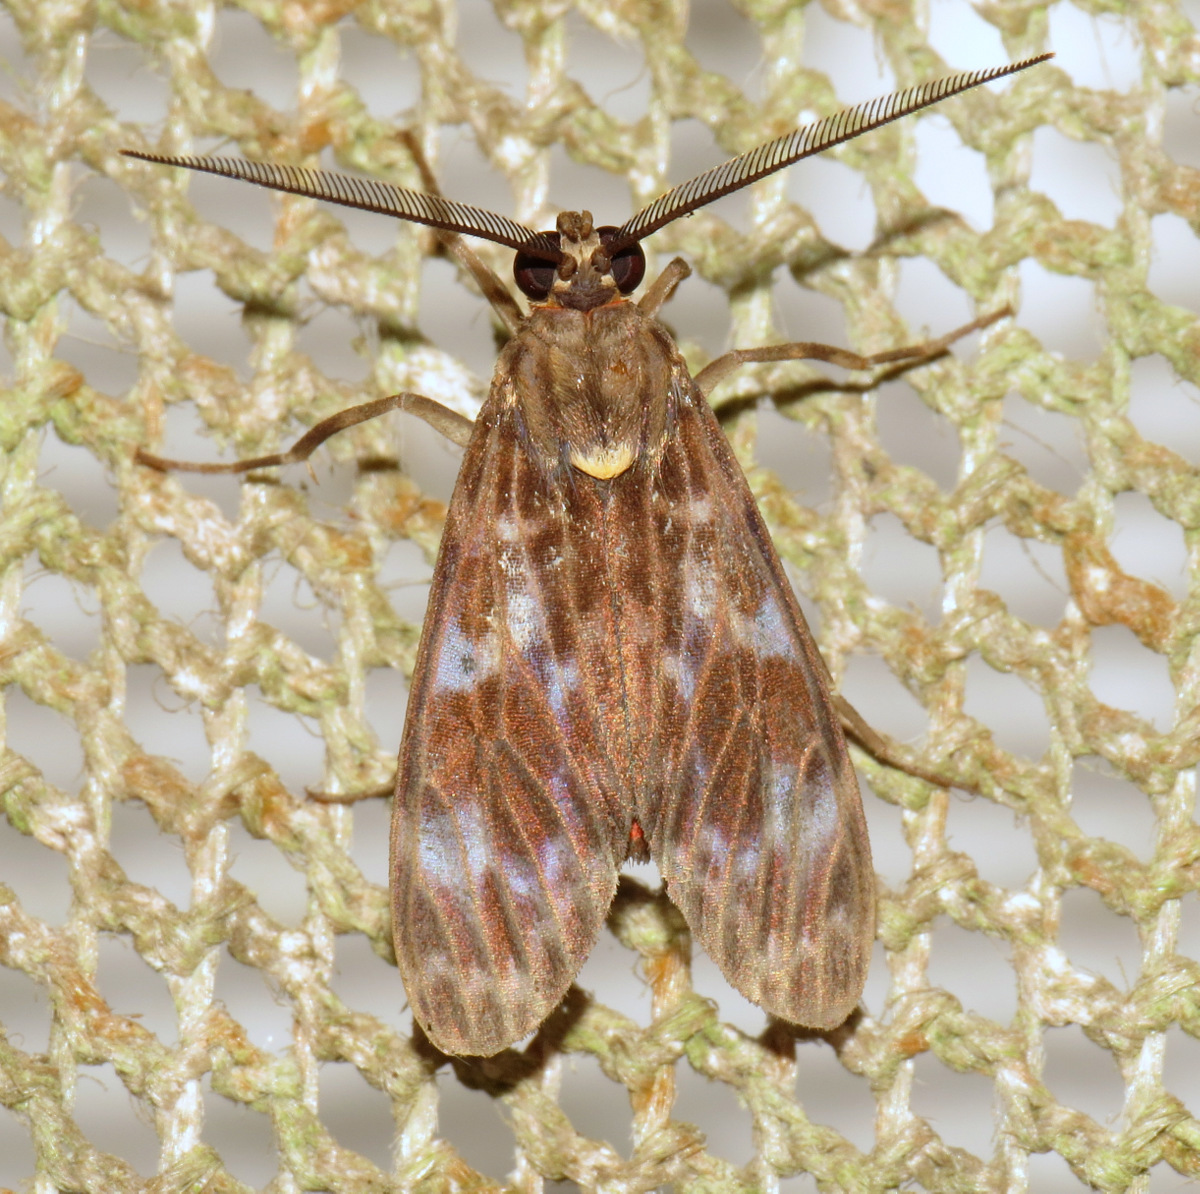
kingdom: Animalia
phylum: Arthropoda
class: Insecta
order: Lepidoptera
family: Erebidae
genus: Eucereon
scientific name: Eucereon metoidesis
